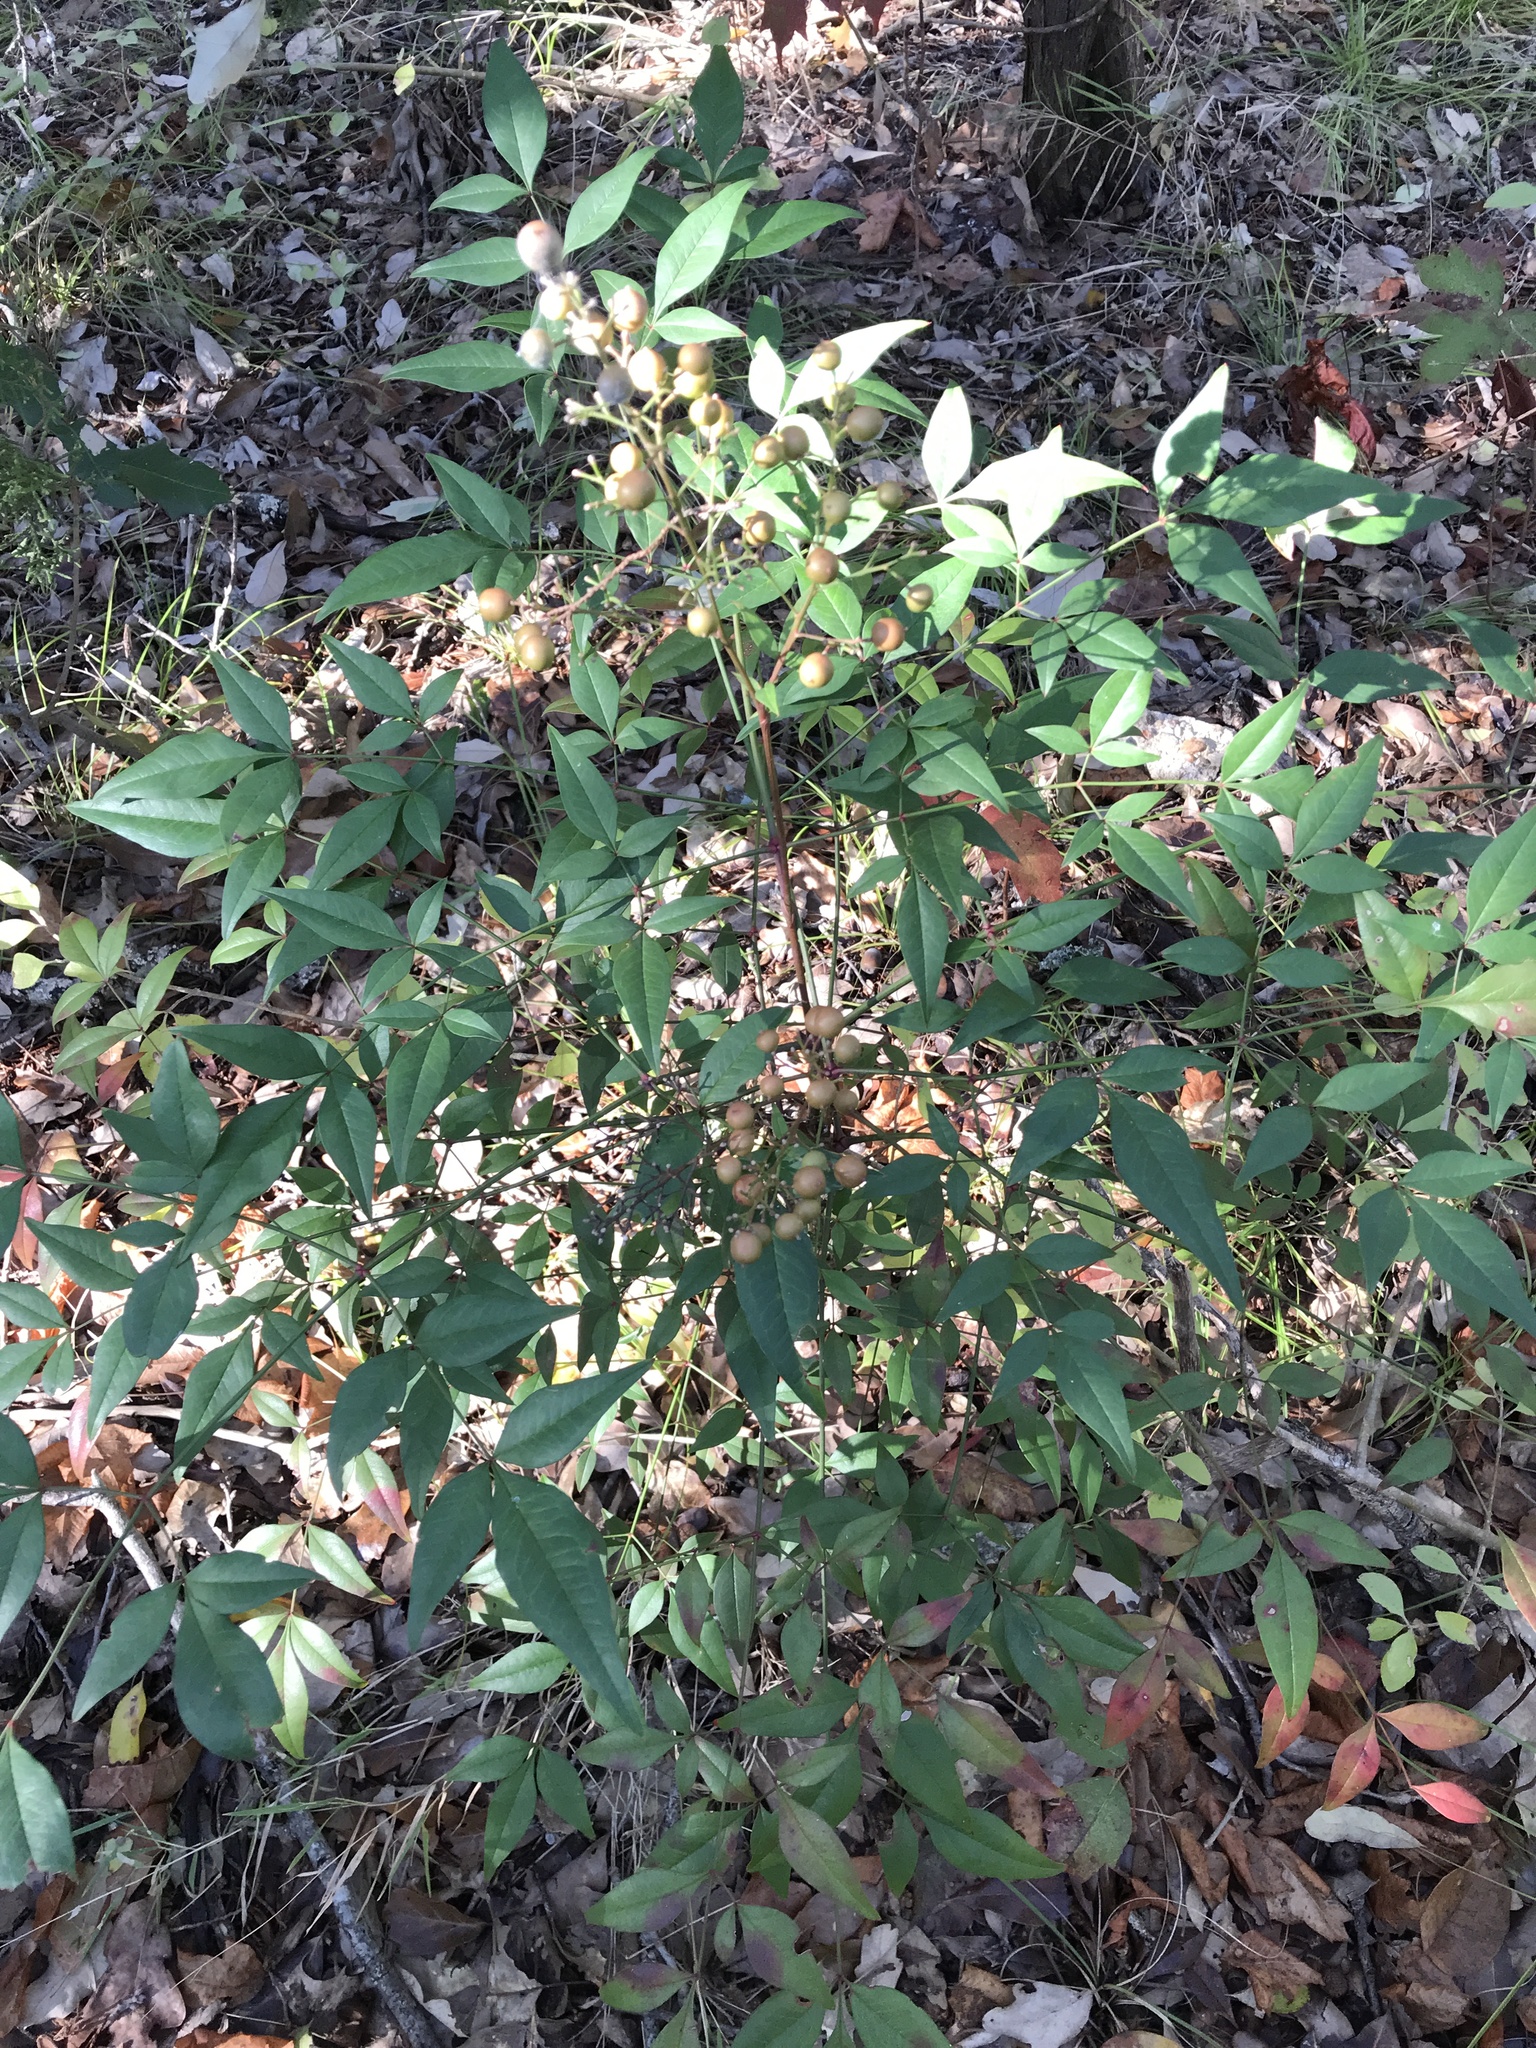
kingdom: Plantae
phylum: Tracheophyta
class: Magnoliopsida
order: Ranunculales
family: Berberidaceae
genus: Nandina
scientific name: Nandina domestica
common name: Sacred bamboo
